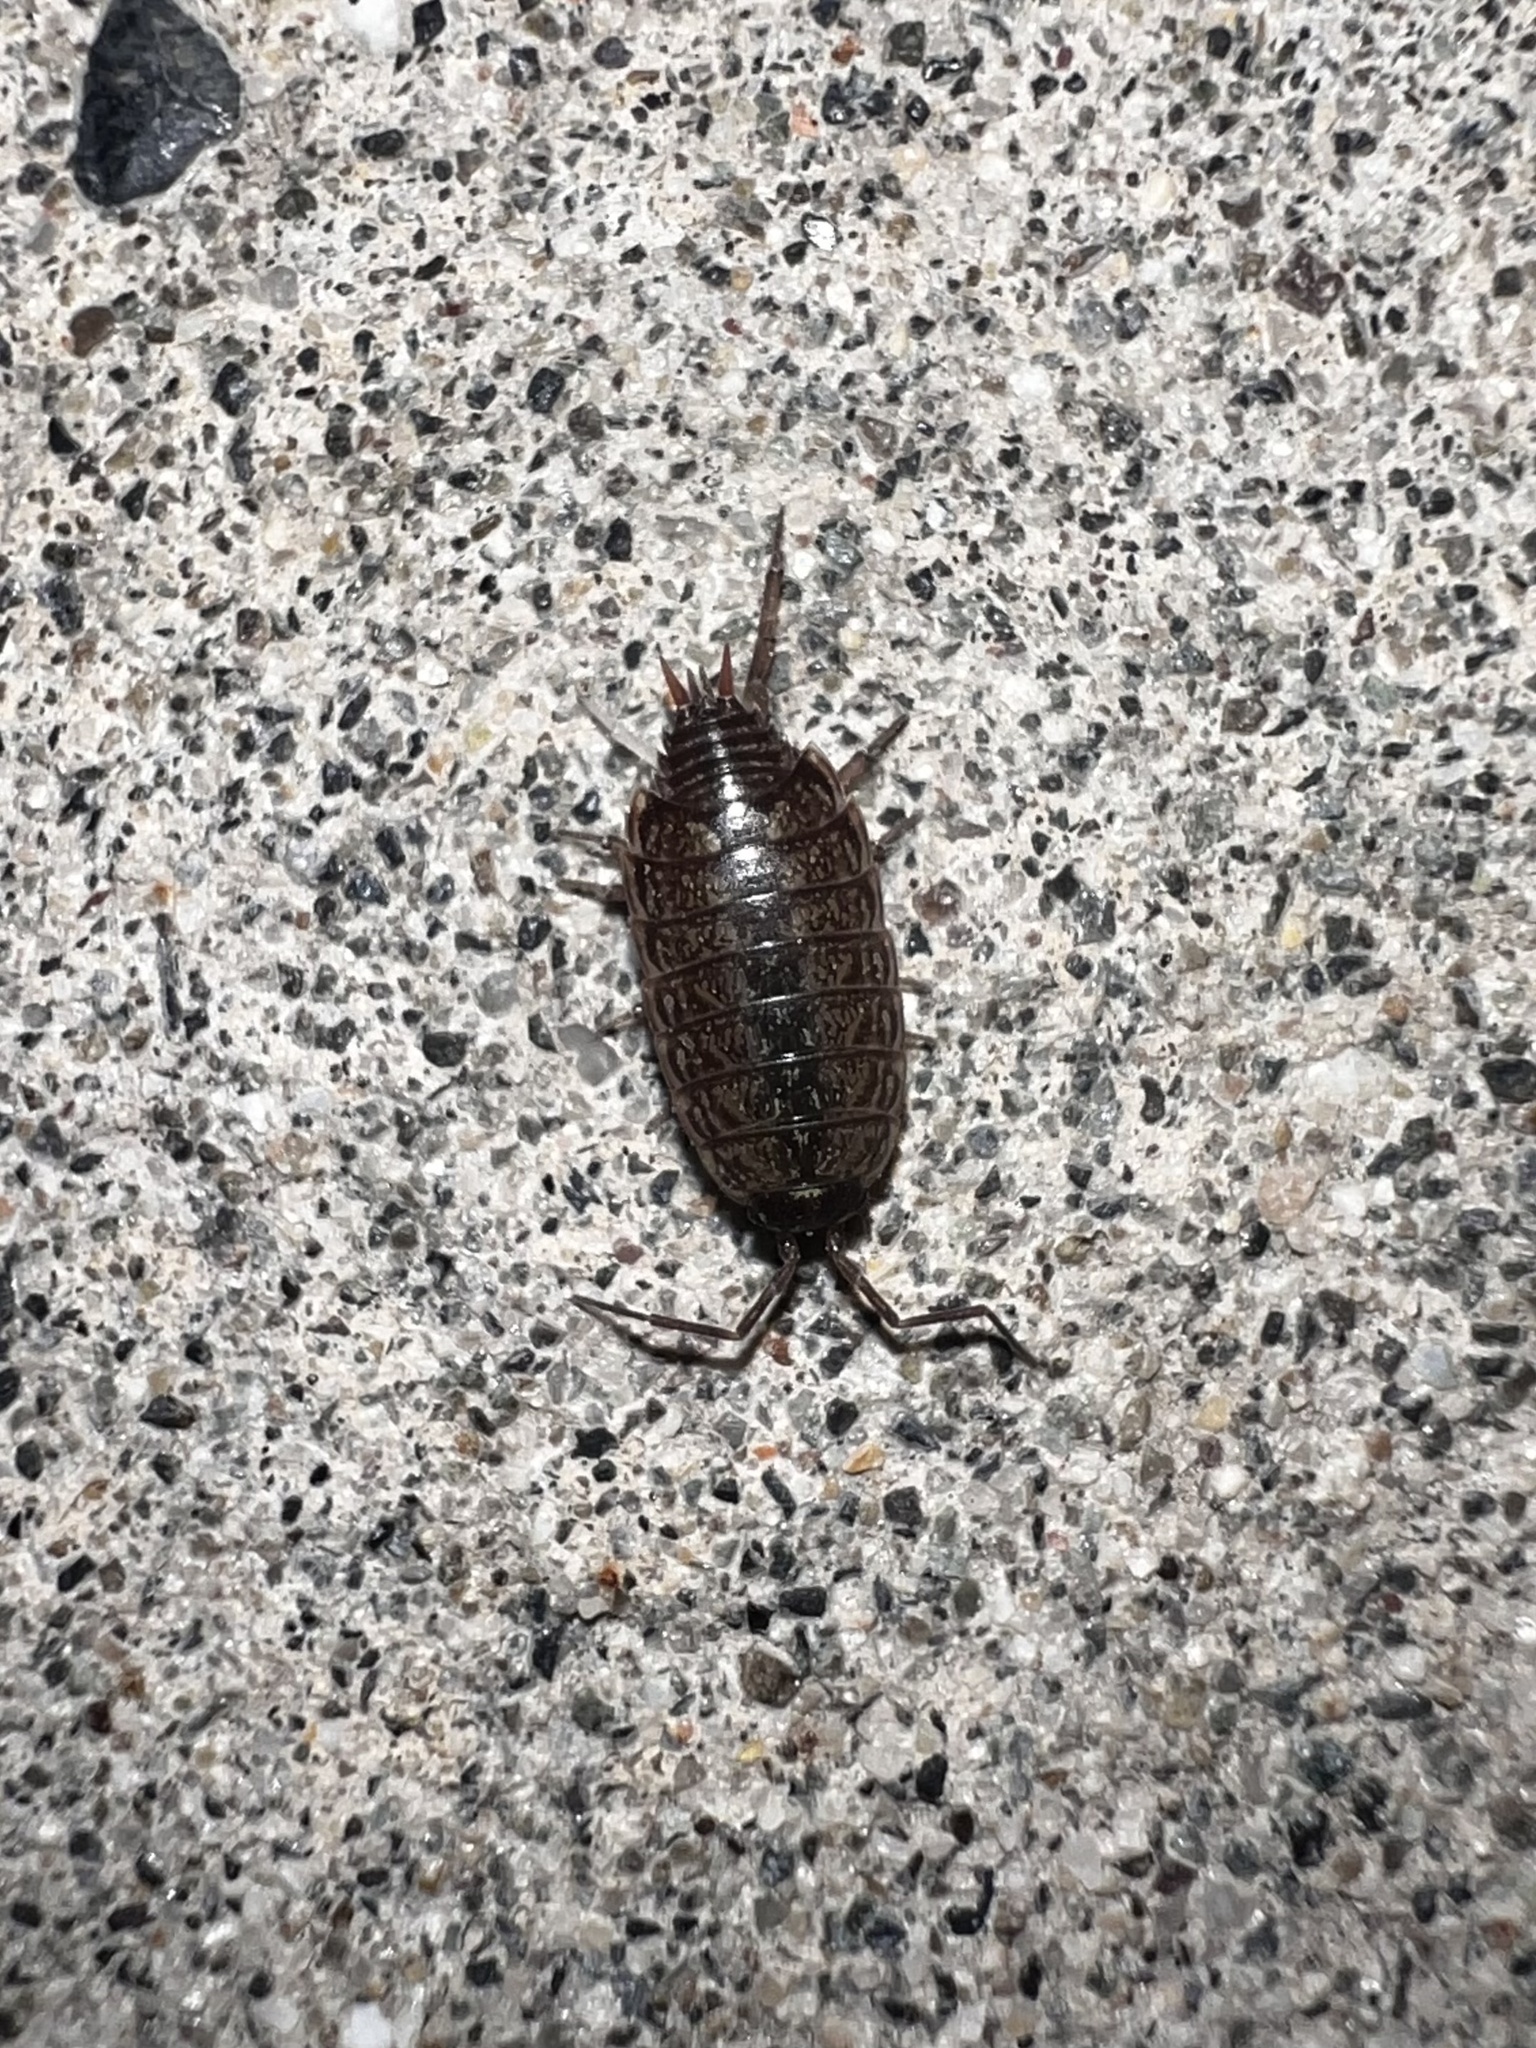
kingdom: Animalia
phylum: Arthropoda
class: Malacostraca
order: Isopoda
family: Philosciidae
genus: Philoscia
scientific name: Philoscia muscorum
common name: Common striped woodlouse
